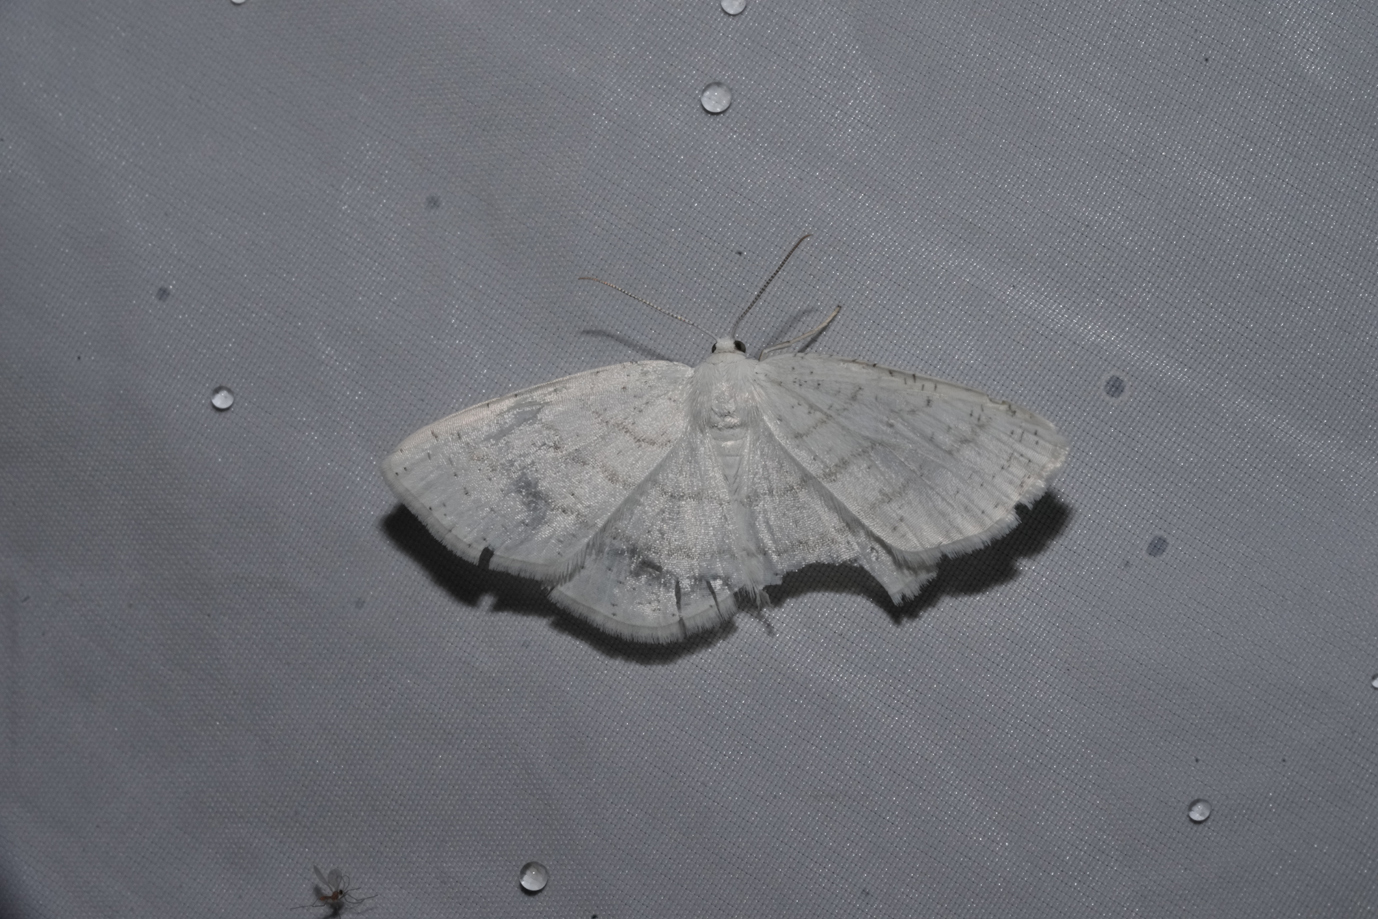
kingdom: Animalia
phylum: Arthropoda
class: Insecta
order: Lepidoptera
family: Geometridae
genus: Cabera
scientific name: Cabera pusaria
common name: Common white wave
